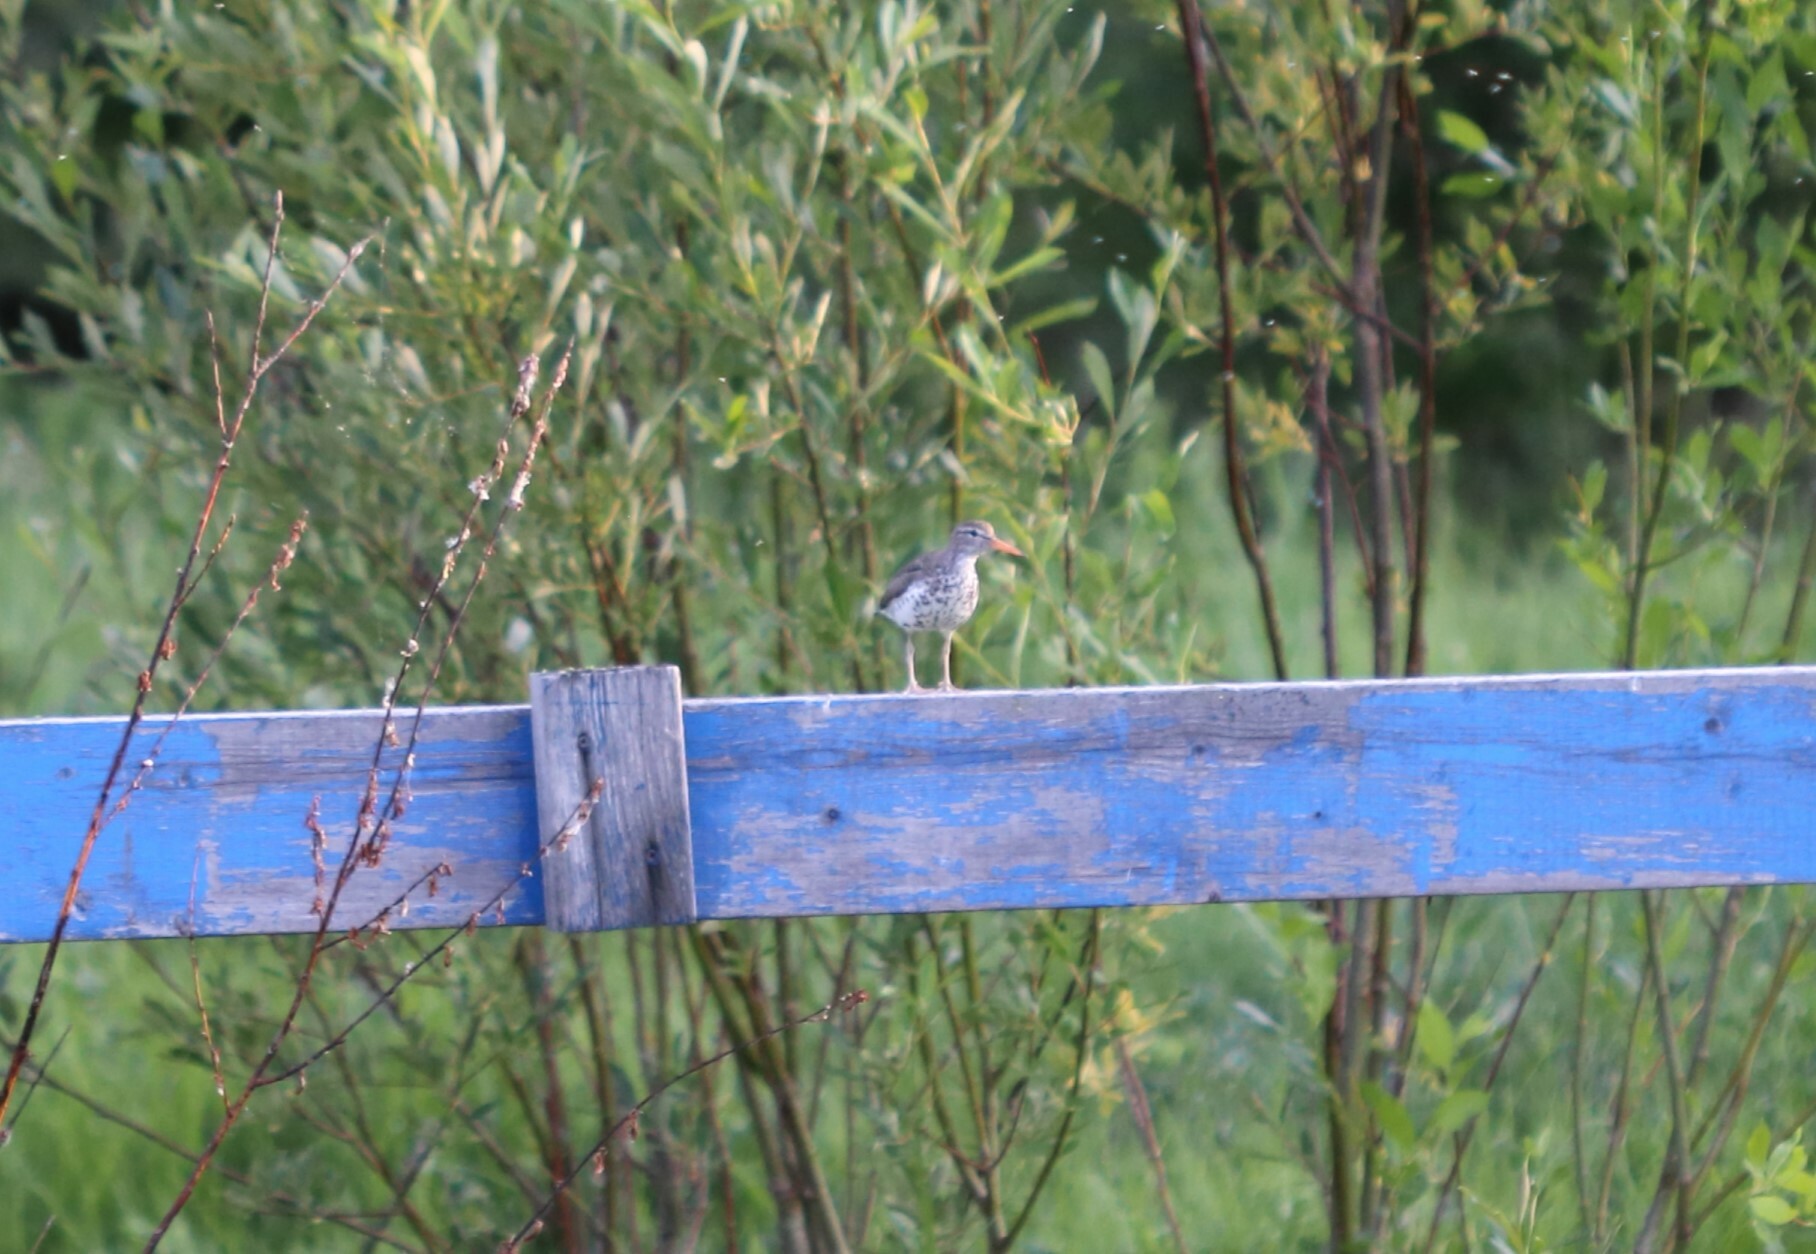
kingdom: Animalia
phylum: Chordata
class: Aves
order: Charadriiformes
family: Scolopacidae
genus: Actitis
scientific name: Actitis macularius
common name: Spotted sandpiper
